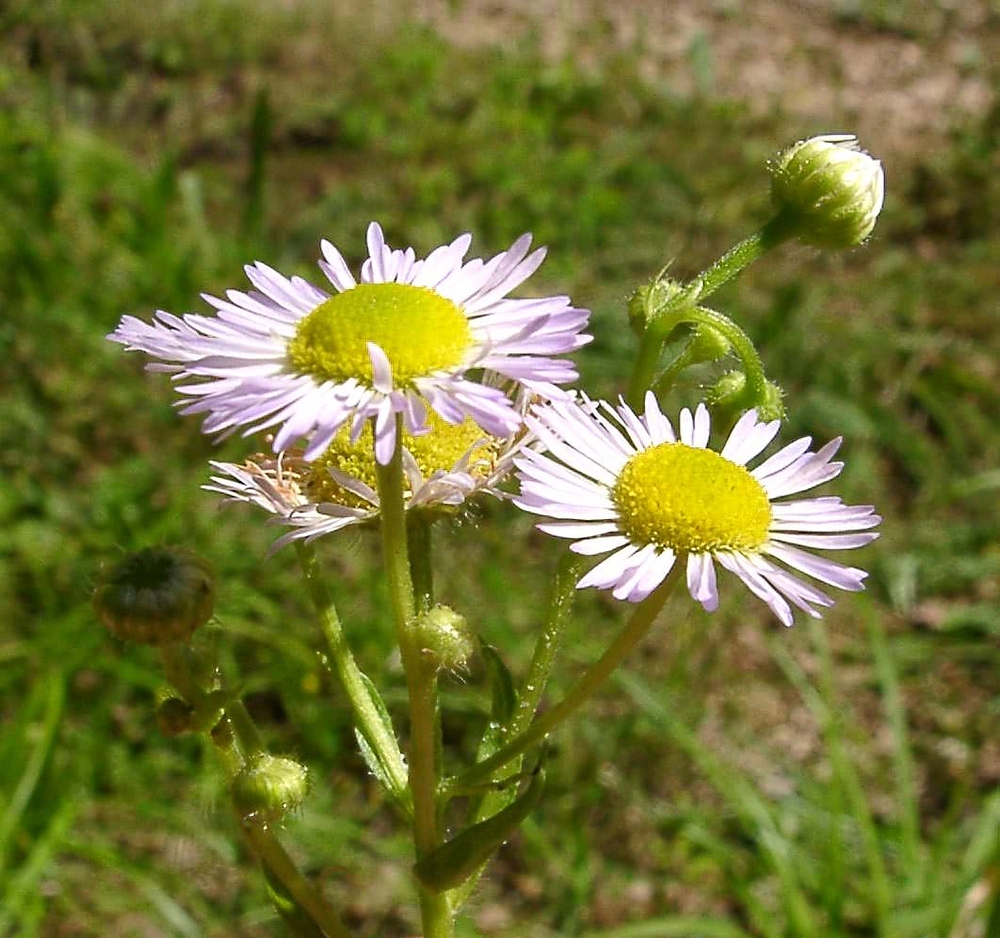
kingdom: Plantae
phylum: Tracheophyta
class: Magnoliopsida
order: Asterales
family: Asteraceae
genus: Erigeron
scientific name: Erigeron annuus
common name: Tall fleabane
